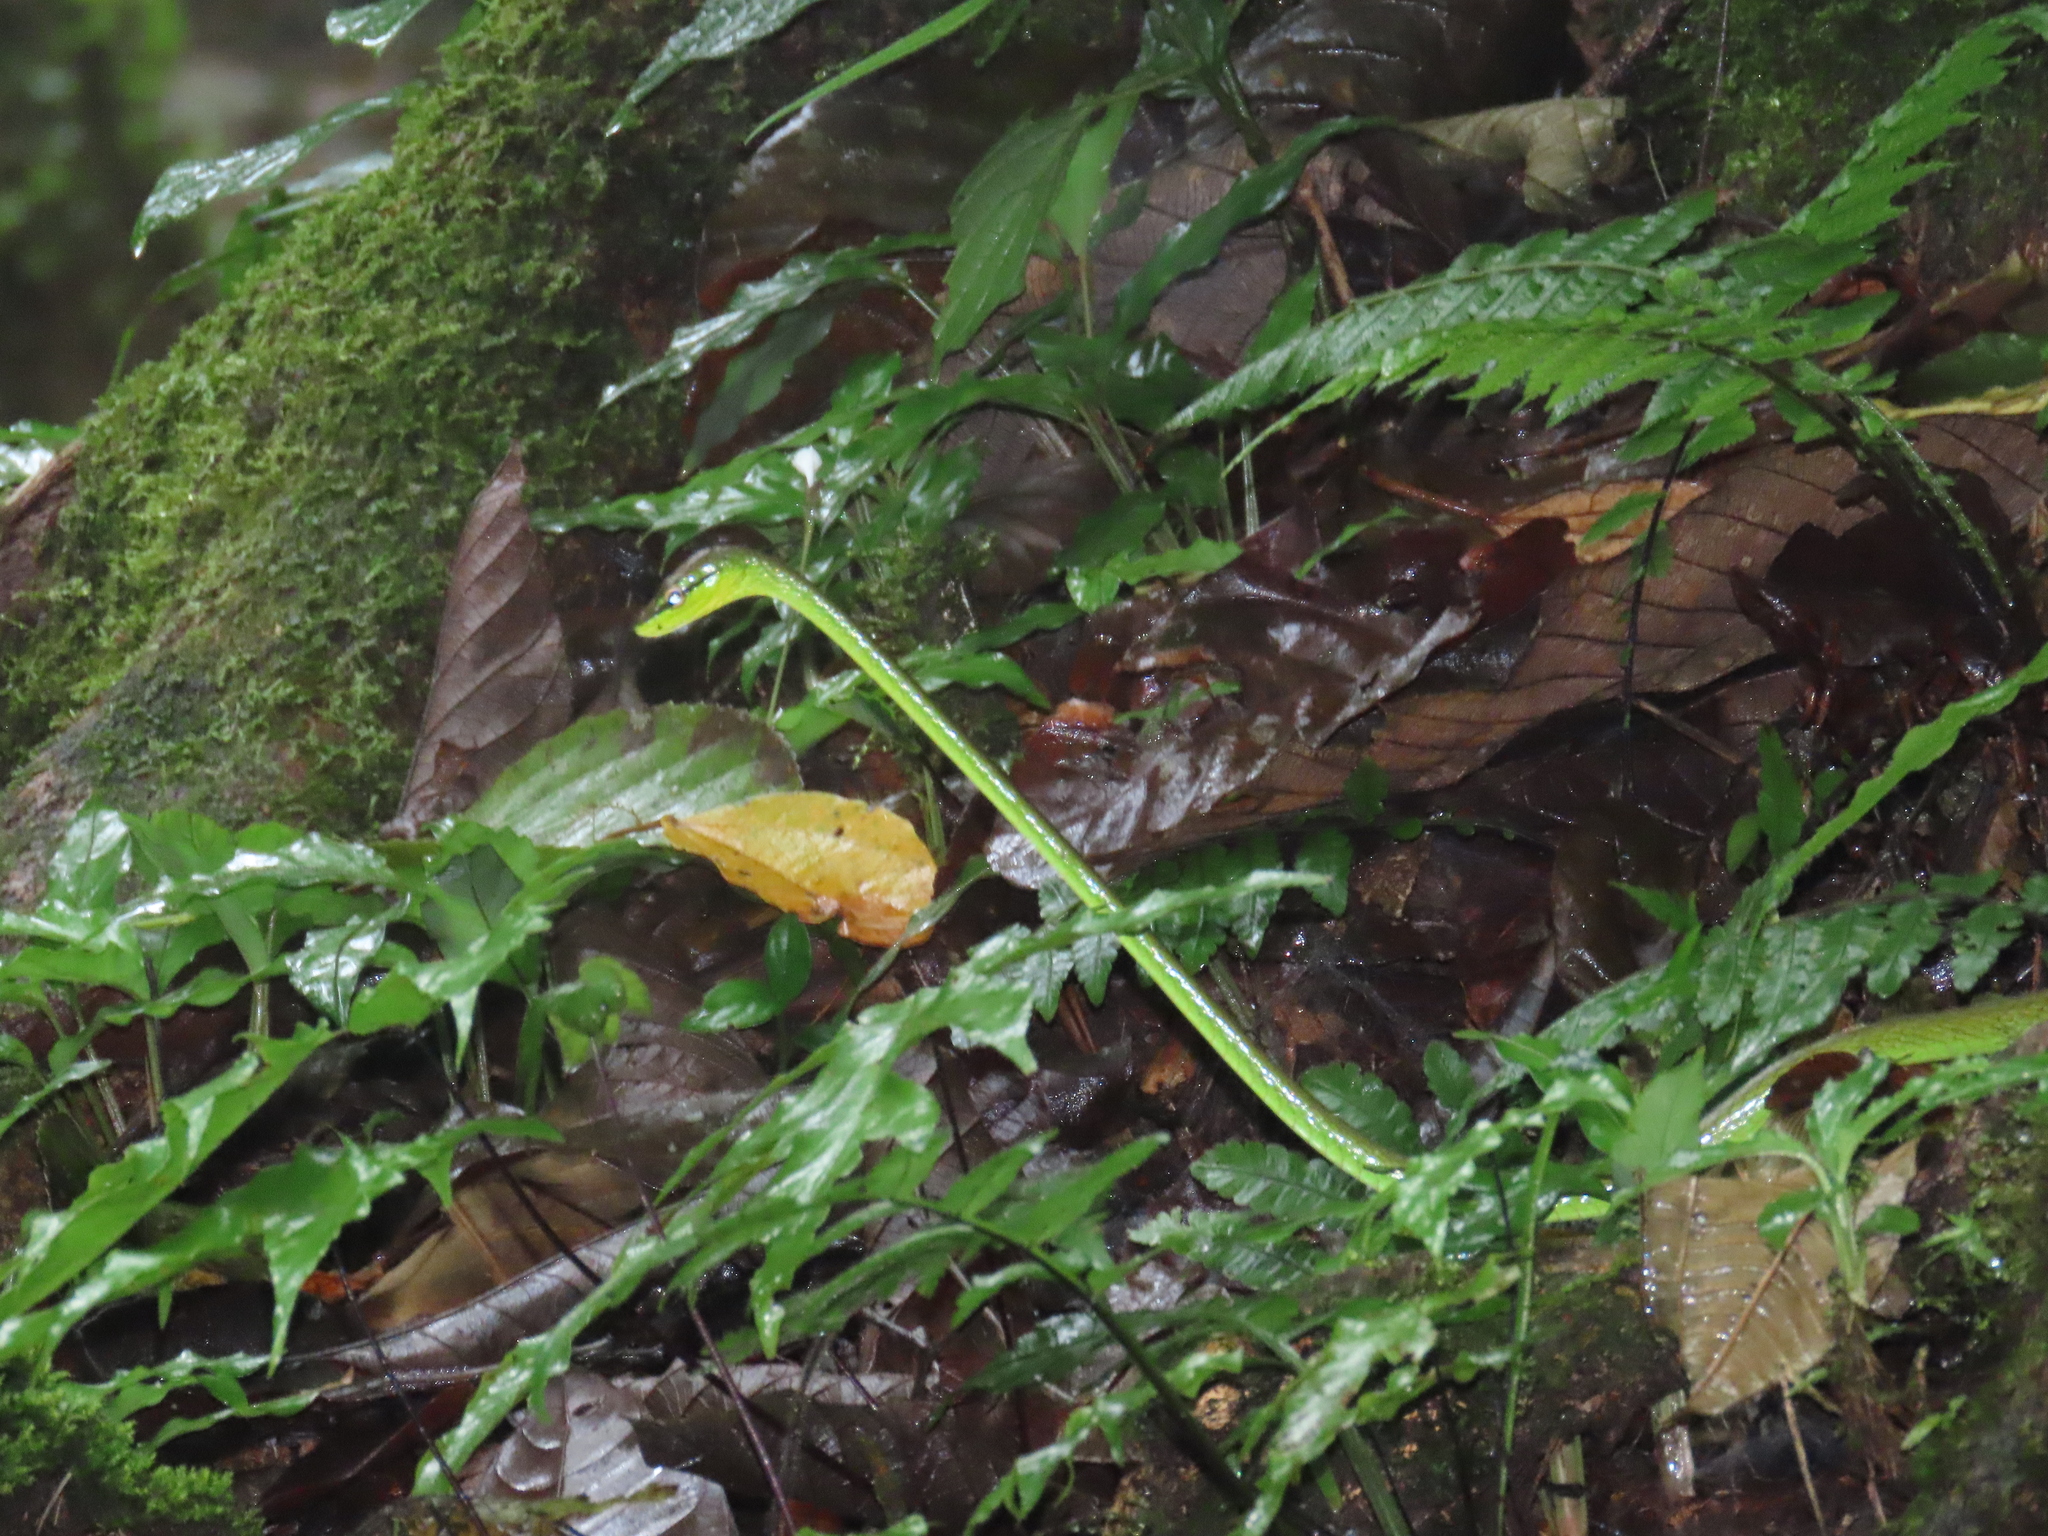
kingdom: Animalia
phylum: Chordata
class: Squamata
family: Colubridae
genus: Oxybelis
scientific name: Oxybelis brevirostris
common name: Cope's vine snake
